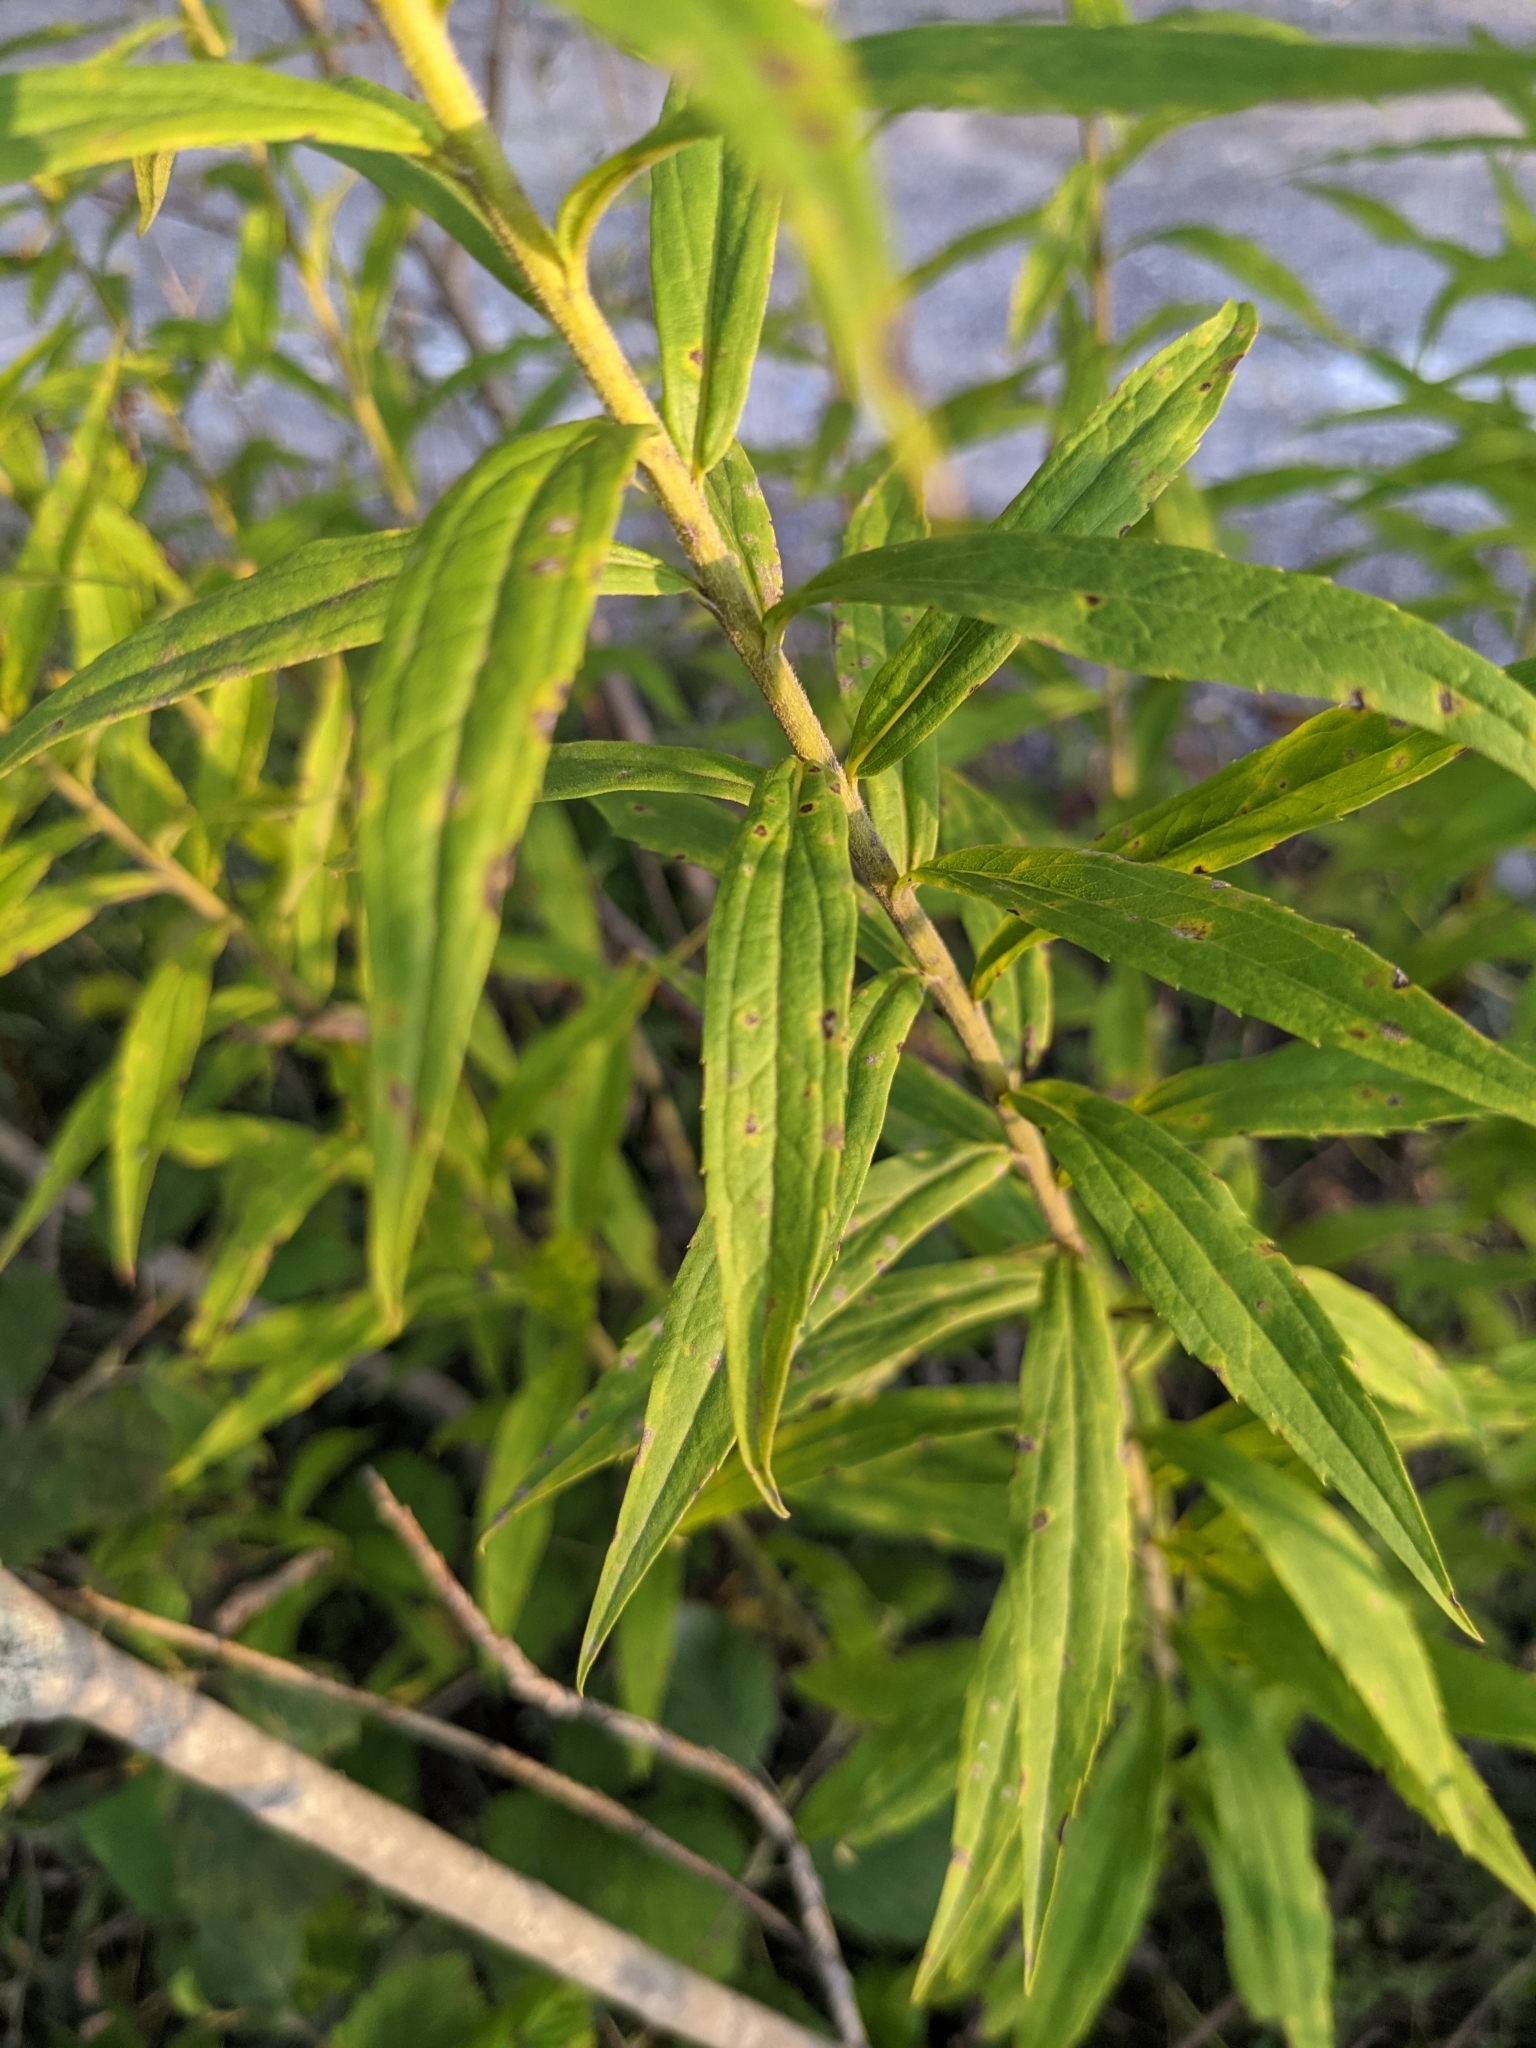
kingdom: Plantae
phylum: Tracheophyta
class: Magnoliopsida
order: Asterales
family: Asteraceae
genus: Solidago
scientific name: Solidago canadensis
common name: Canada goldenrod
